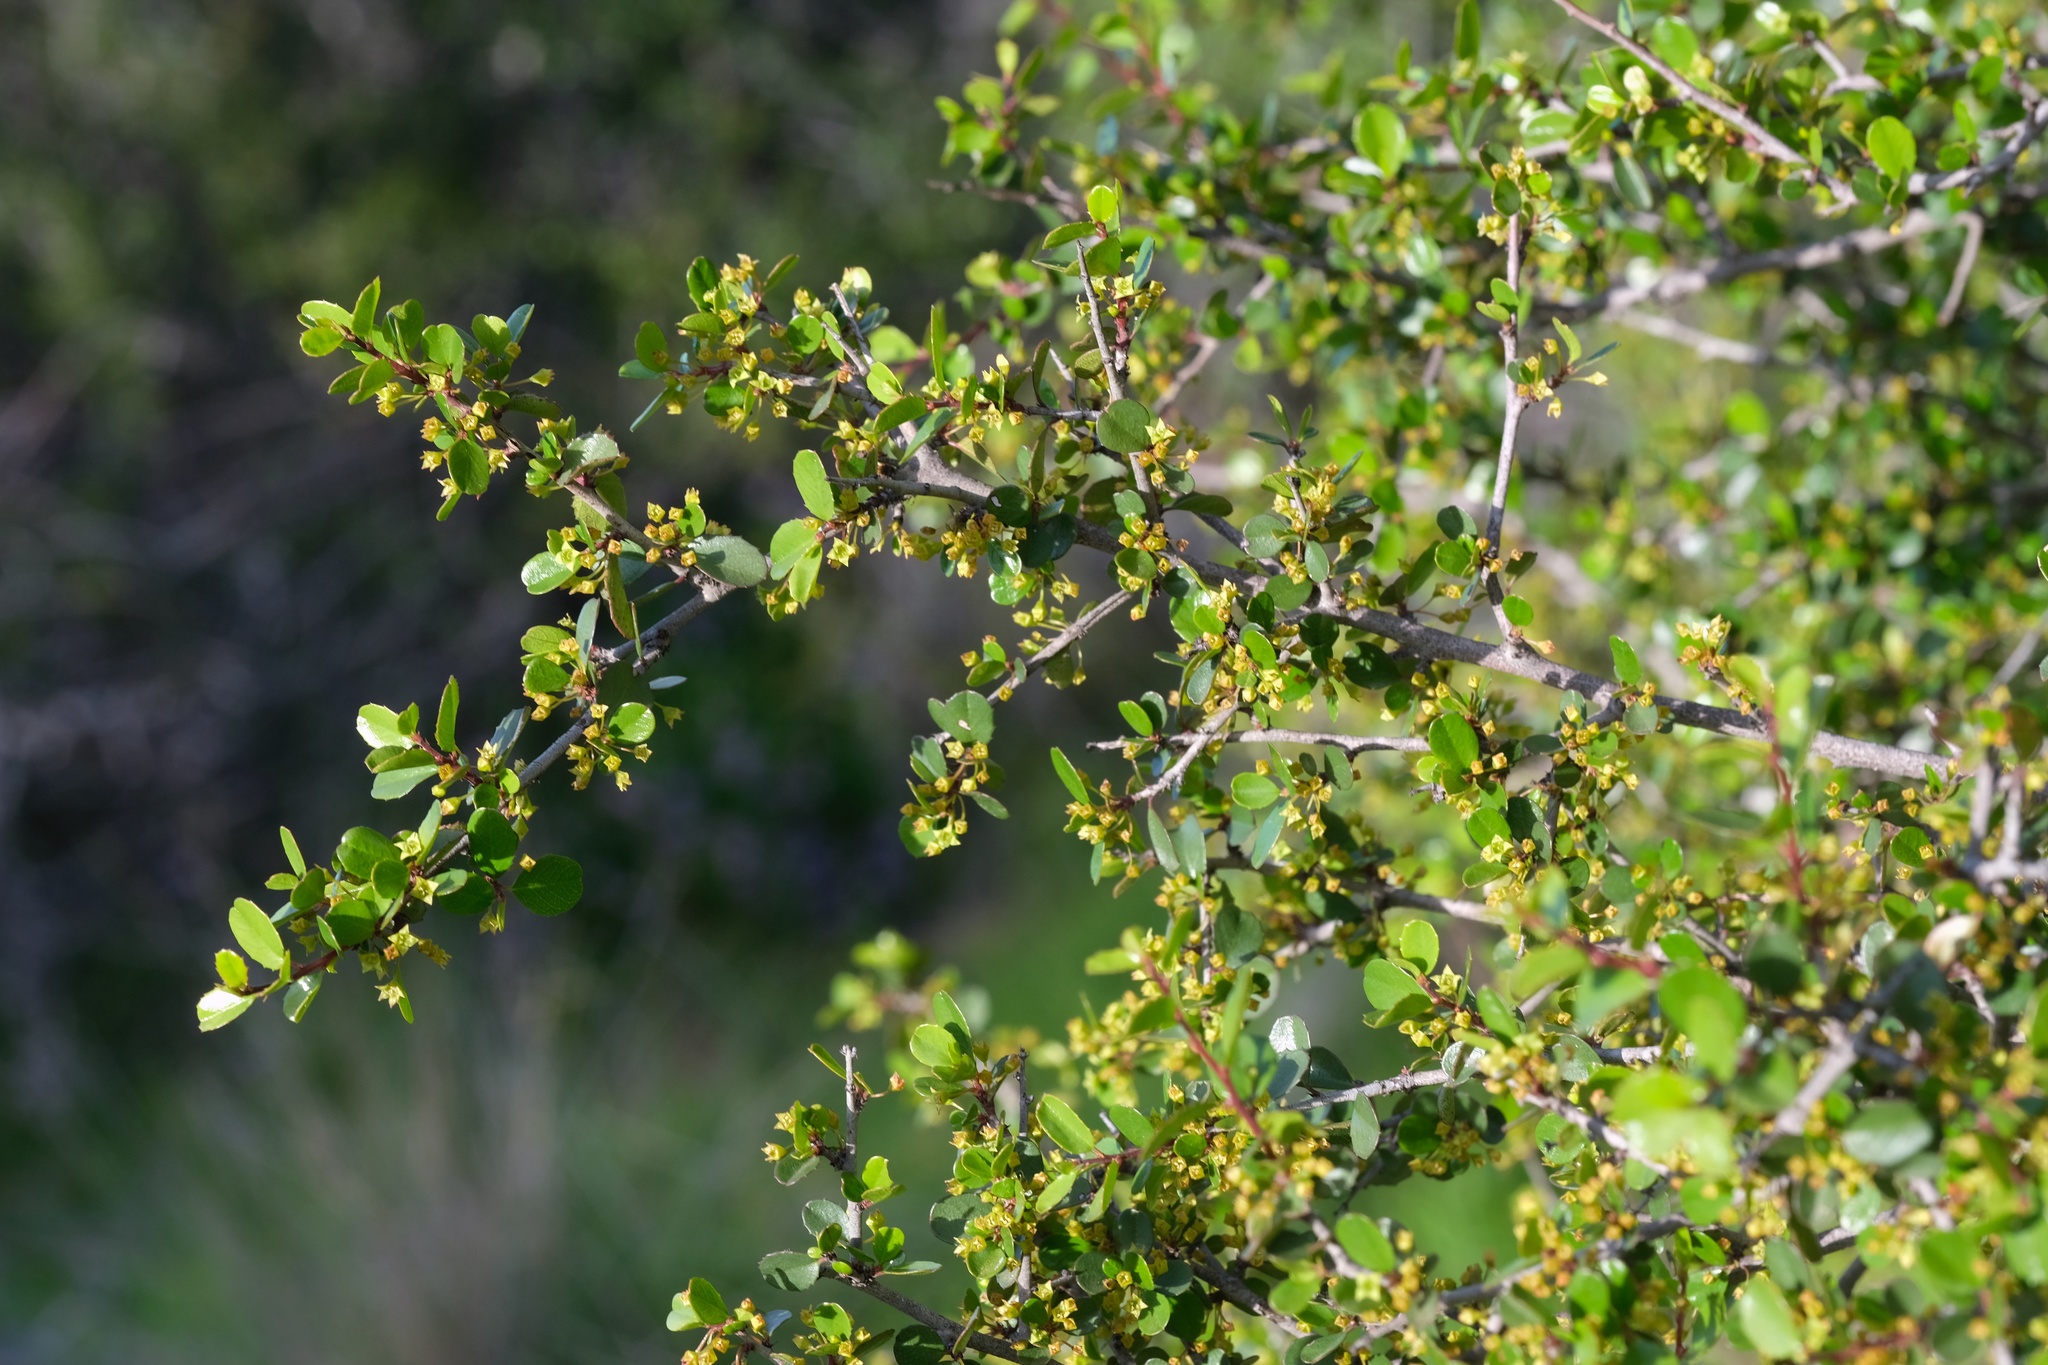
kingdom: Plantae
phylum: Tracheophyta
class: Magnoliopsida
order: Rosales
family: Rhamnaceae
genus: Endotropis
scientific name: Endotropis crocea
